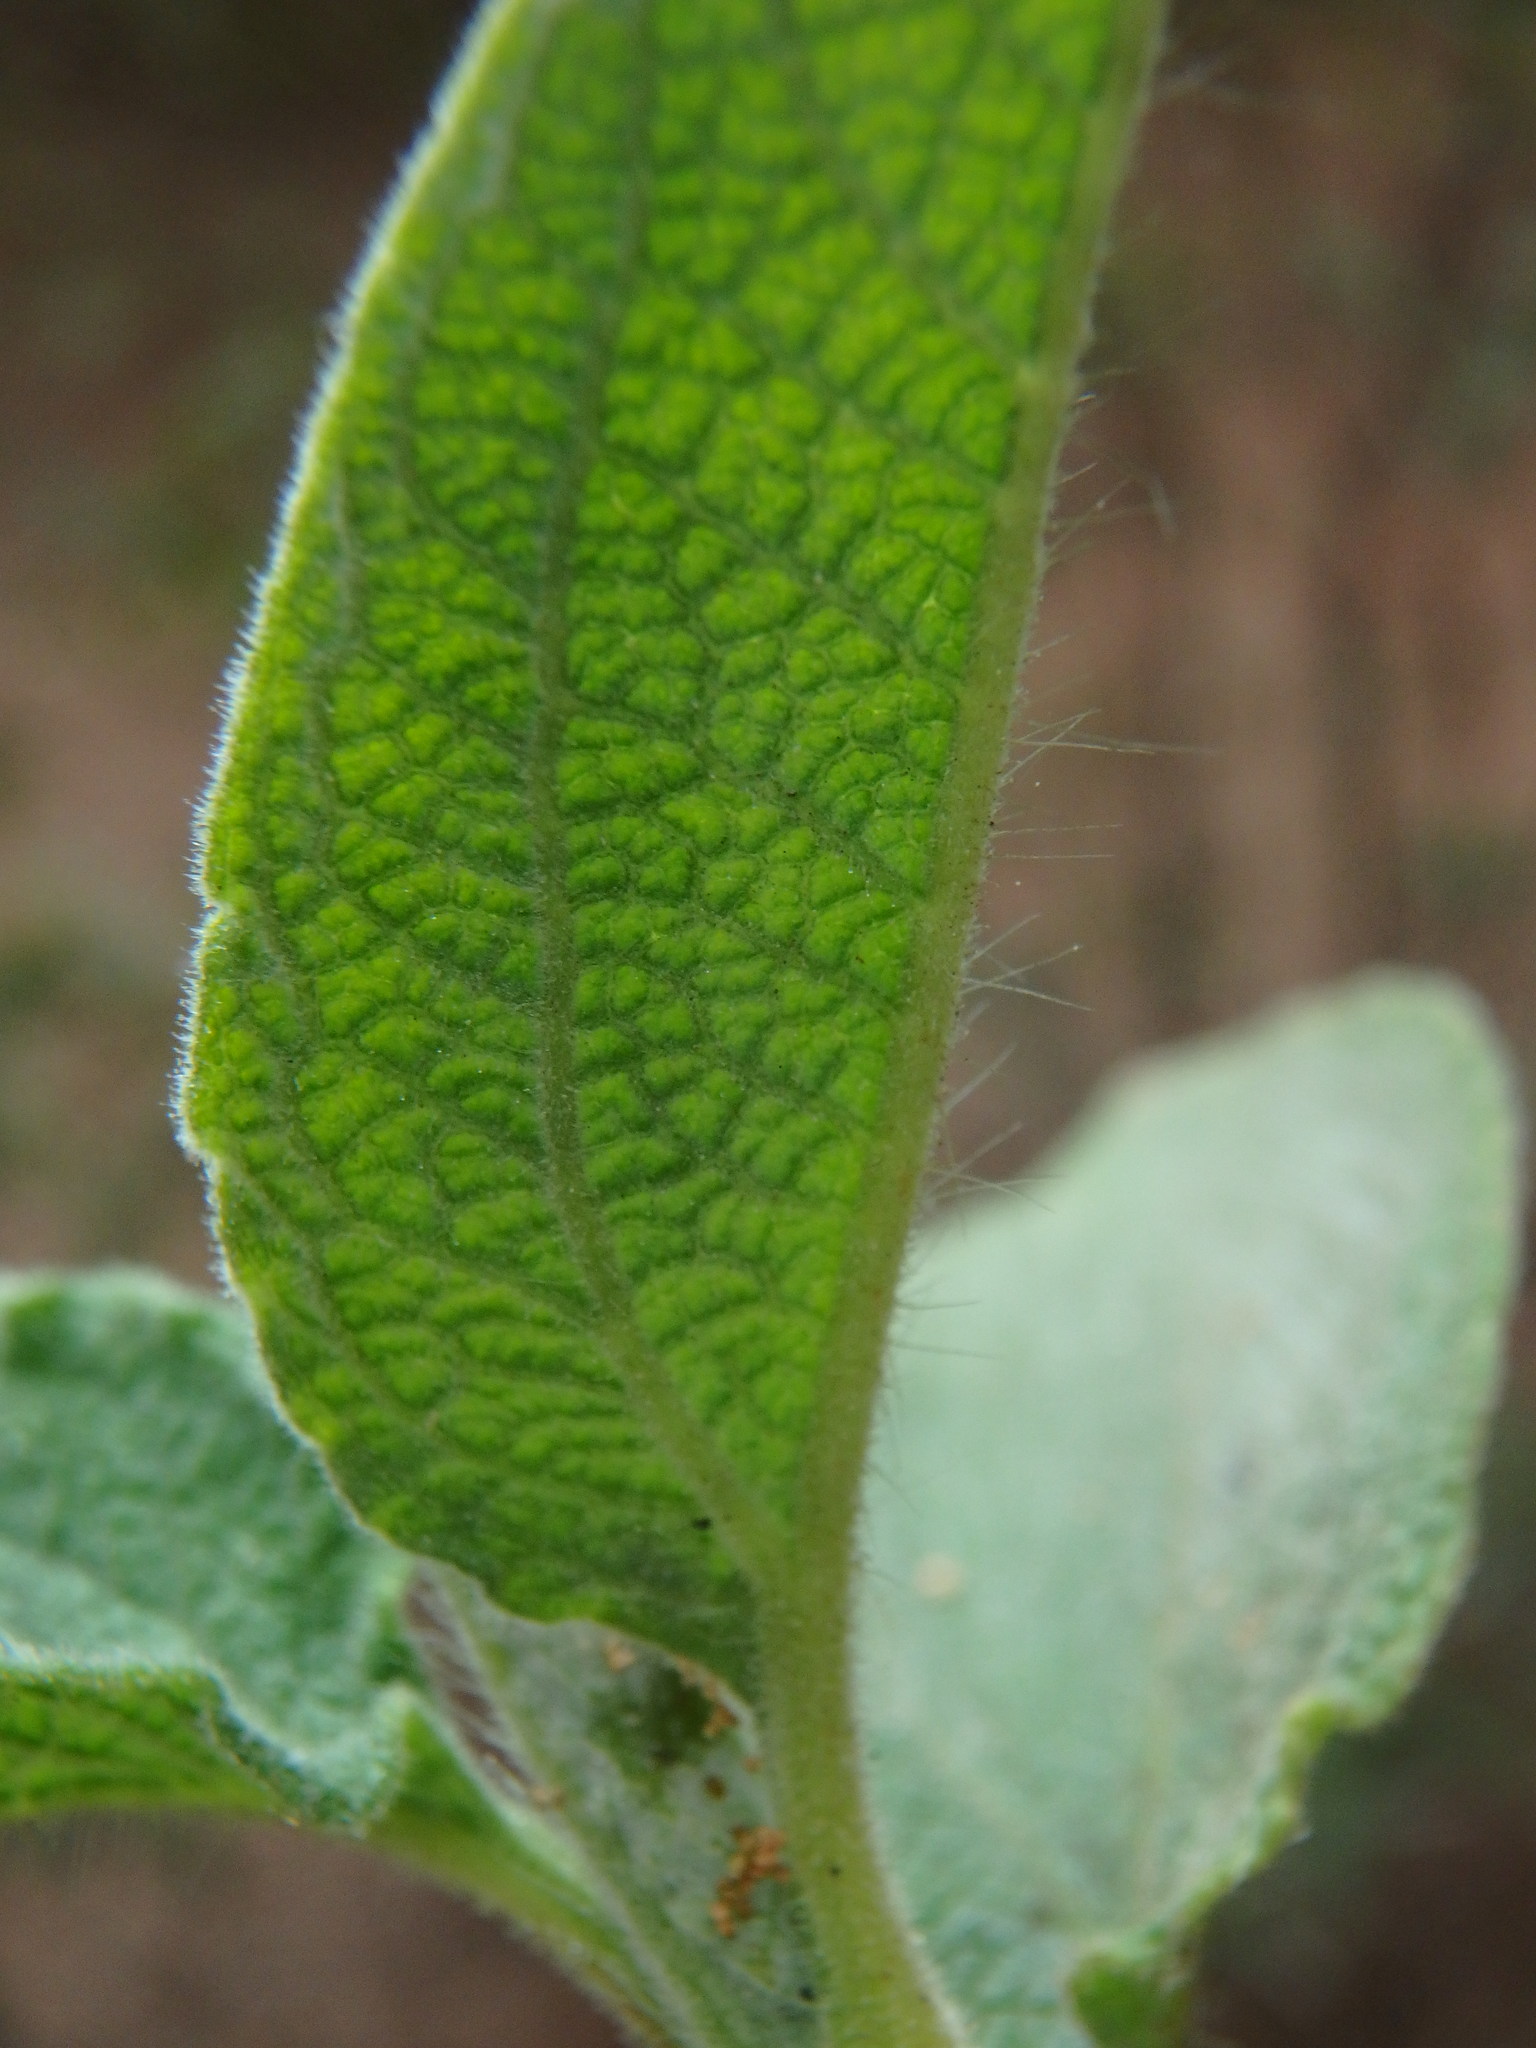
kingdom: Plantae
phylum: Tracheophyta
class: Magnoliopsida
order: Malvales
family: Cistaceae
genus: Cistus
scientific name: Cistus symphytifolius
